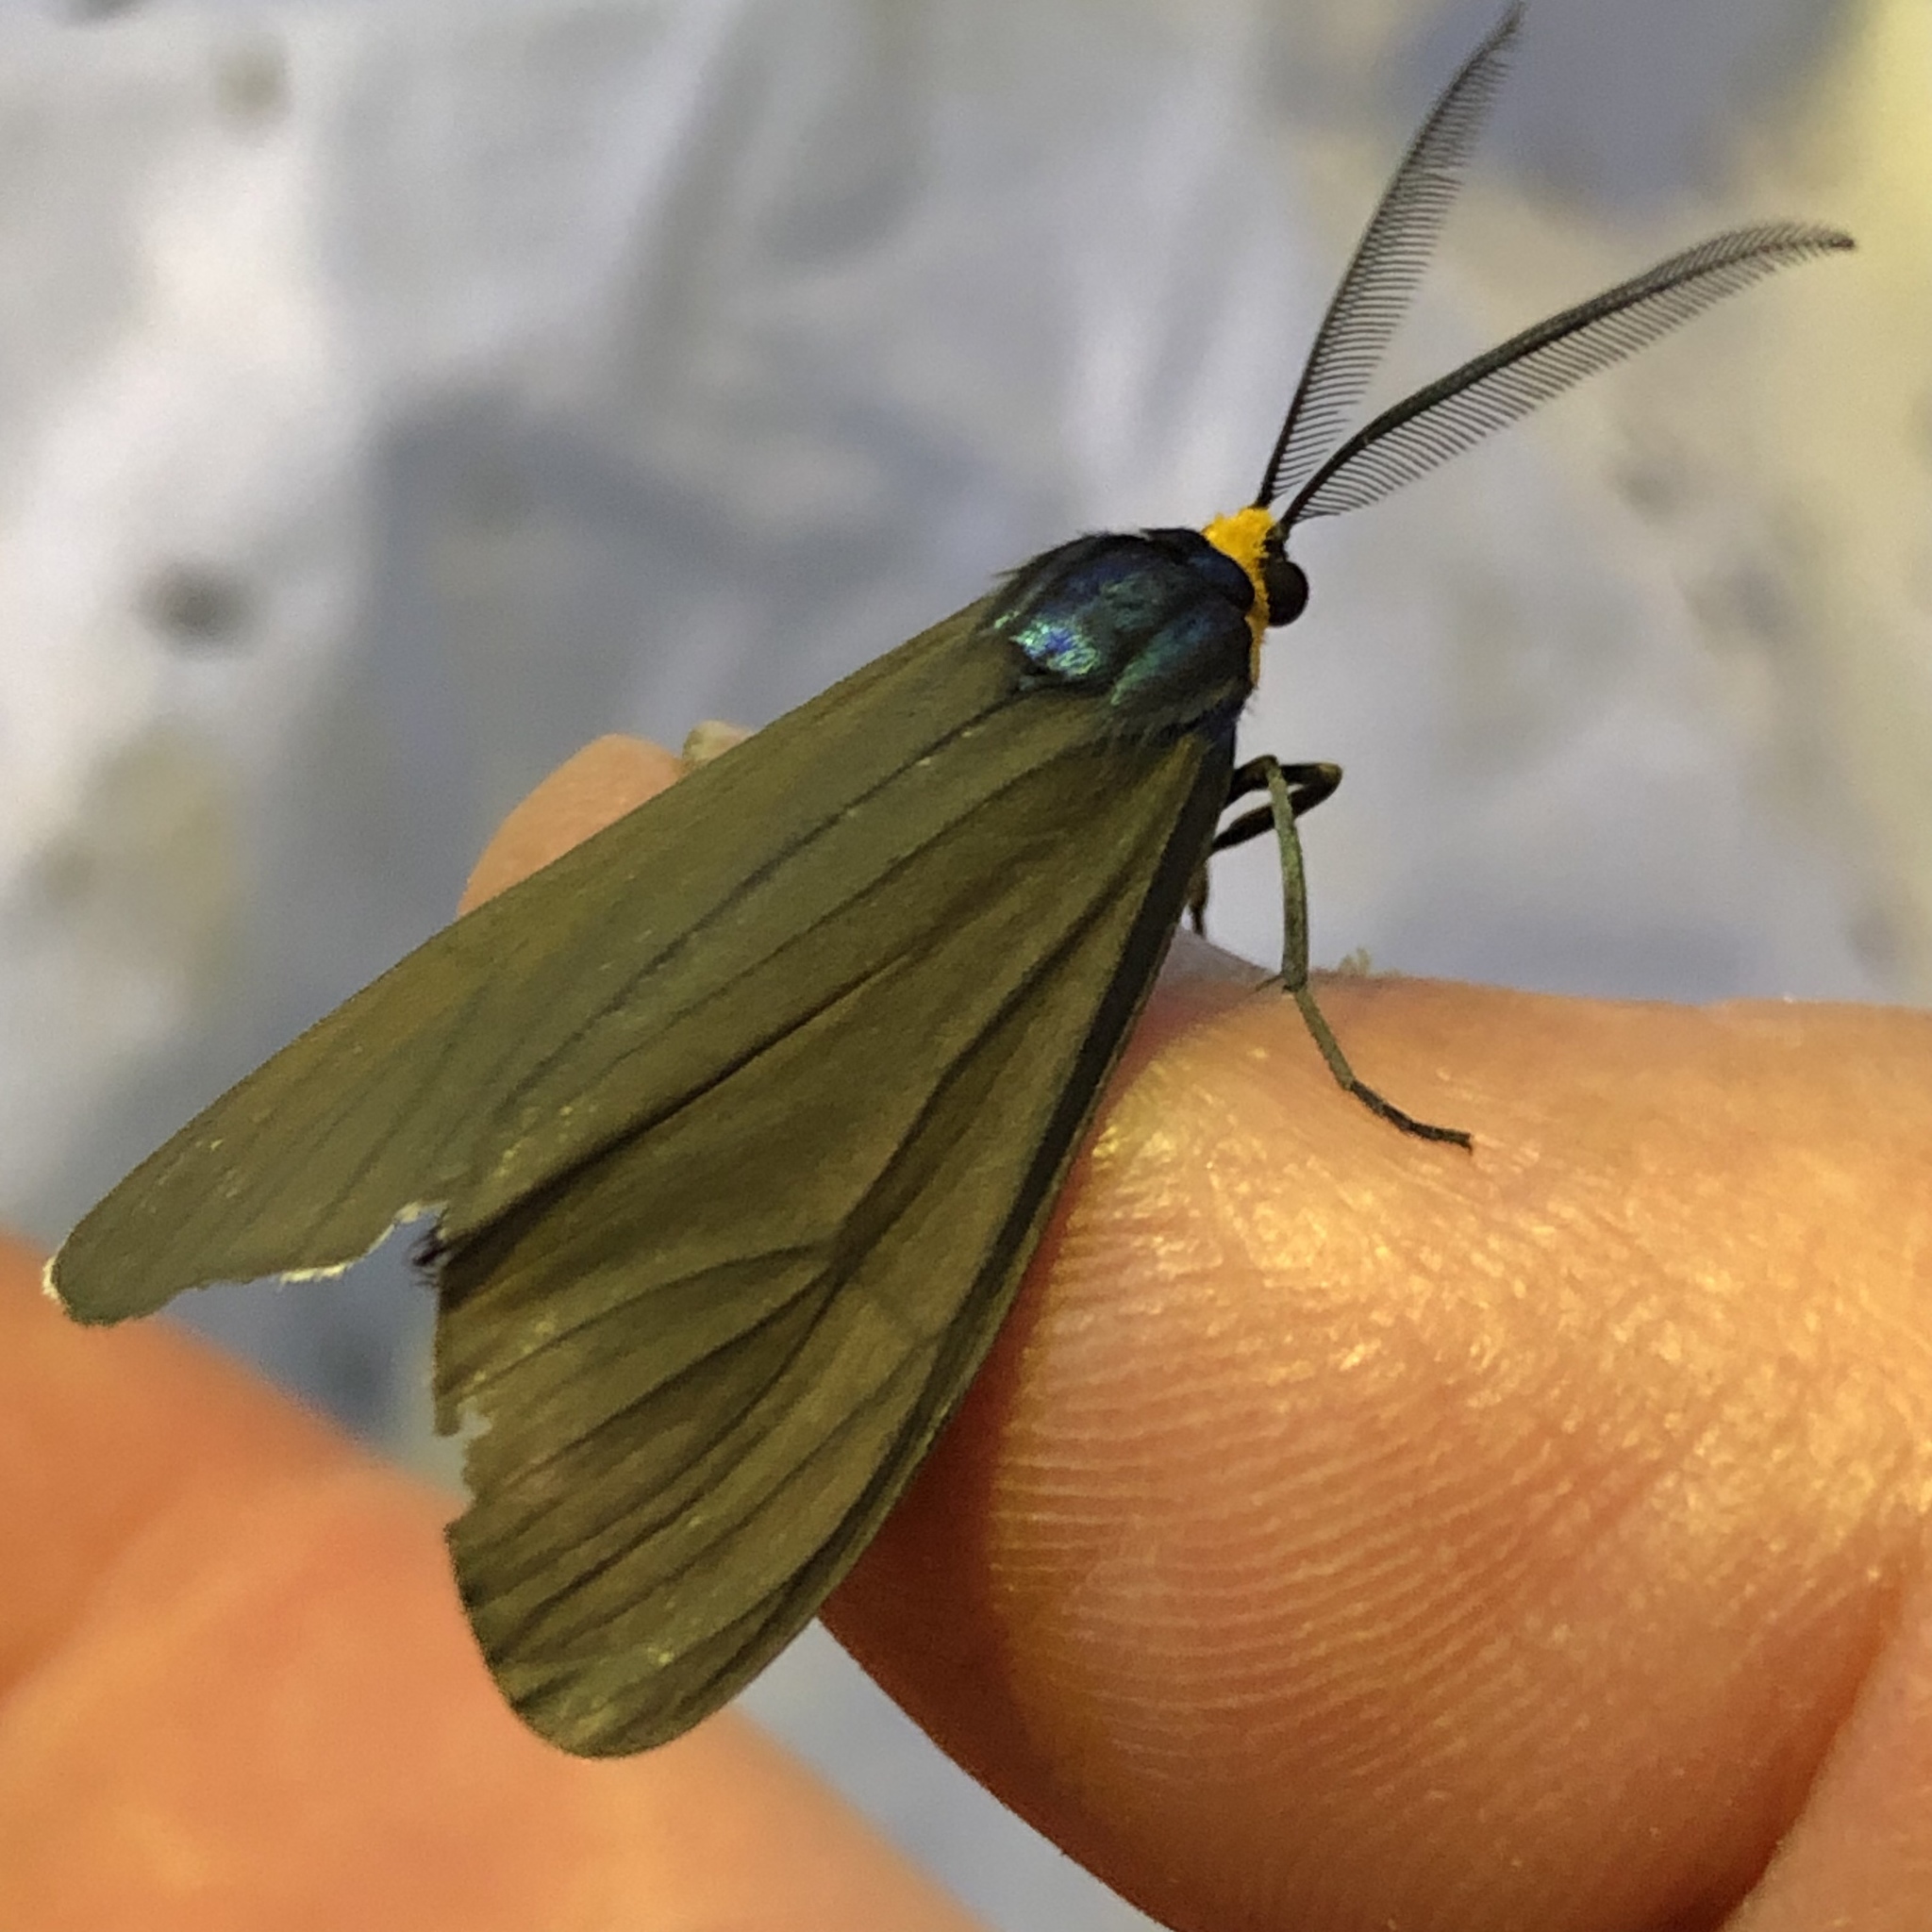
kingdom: Animalia
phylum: Arthropoda
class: Insecta
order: Lepidoptera
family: Erebidae
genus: Ctenucha
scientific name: Ctenucha virginica
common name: Virginia ctenucha moth
